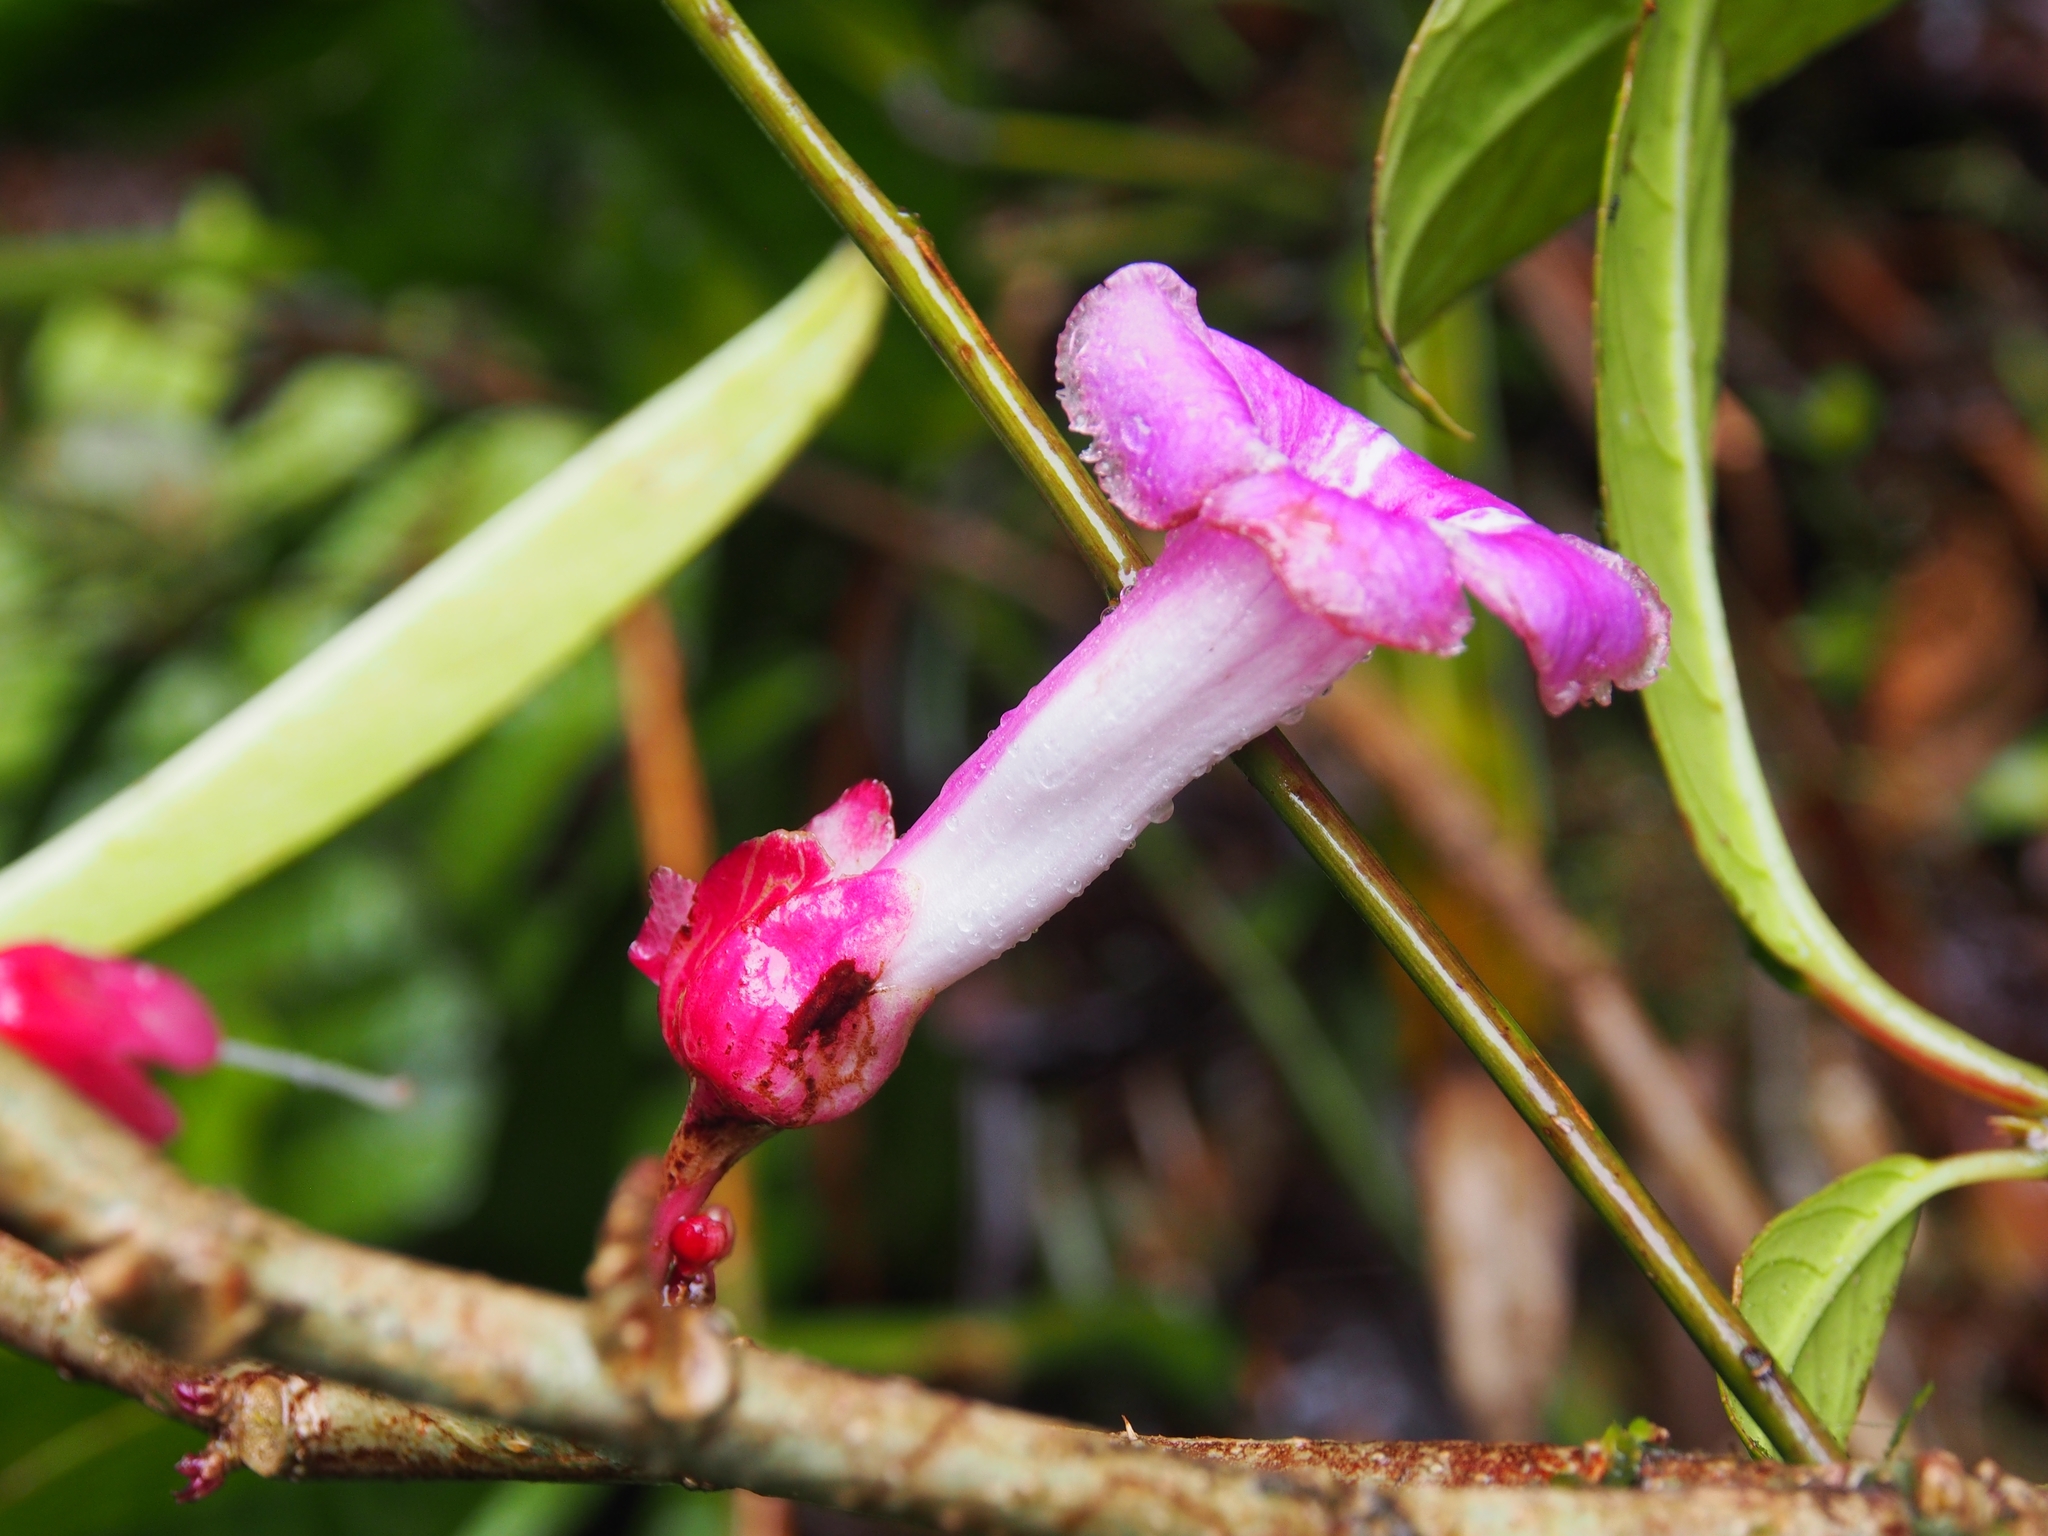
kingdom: Plantae
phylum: Tracheophyta
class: Magnoliopsida
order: Lamiales
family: Gesneriaceae
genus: Drymonia
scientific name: Drymonia conchocalyx
